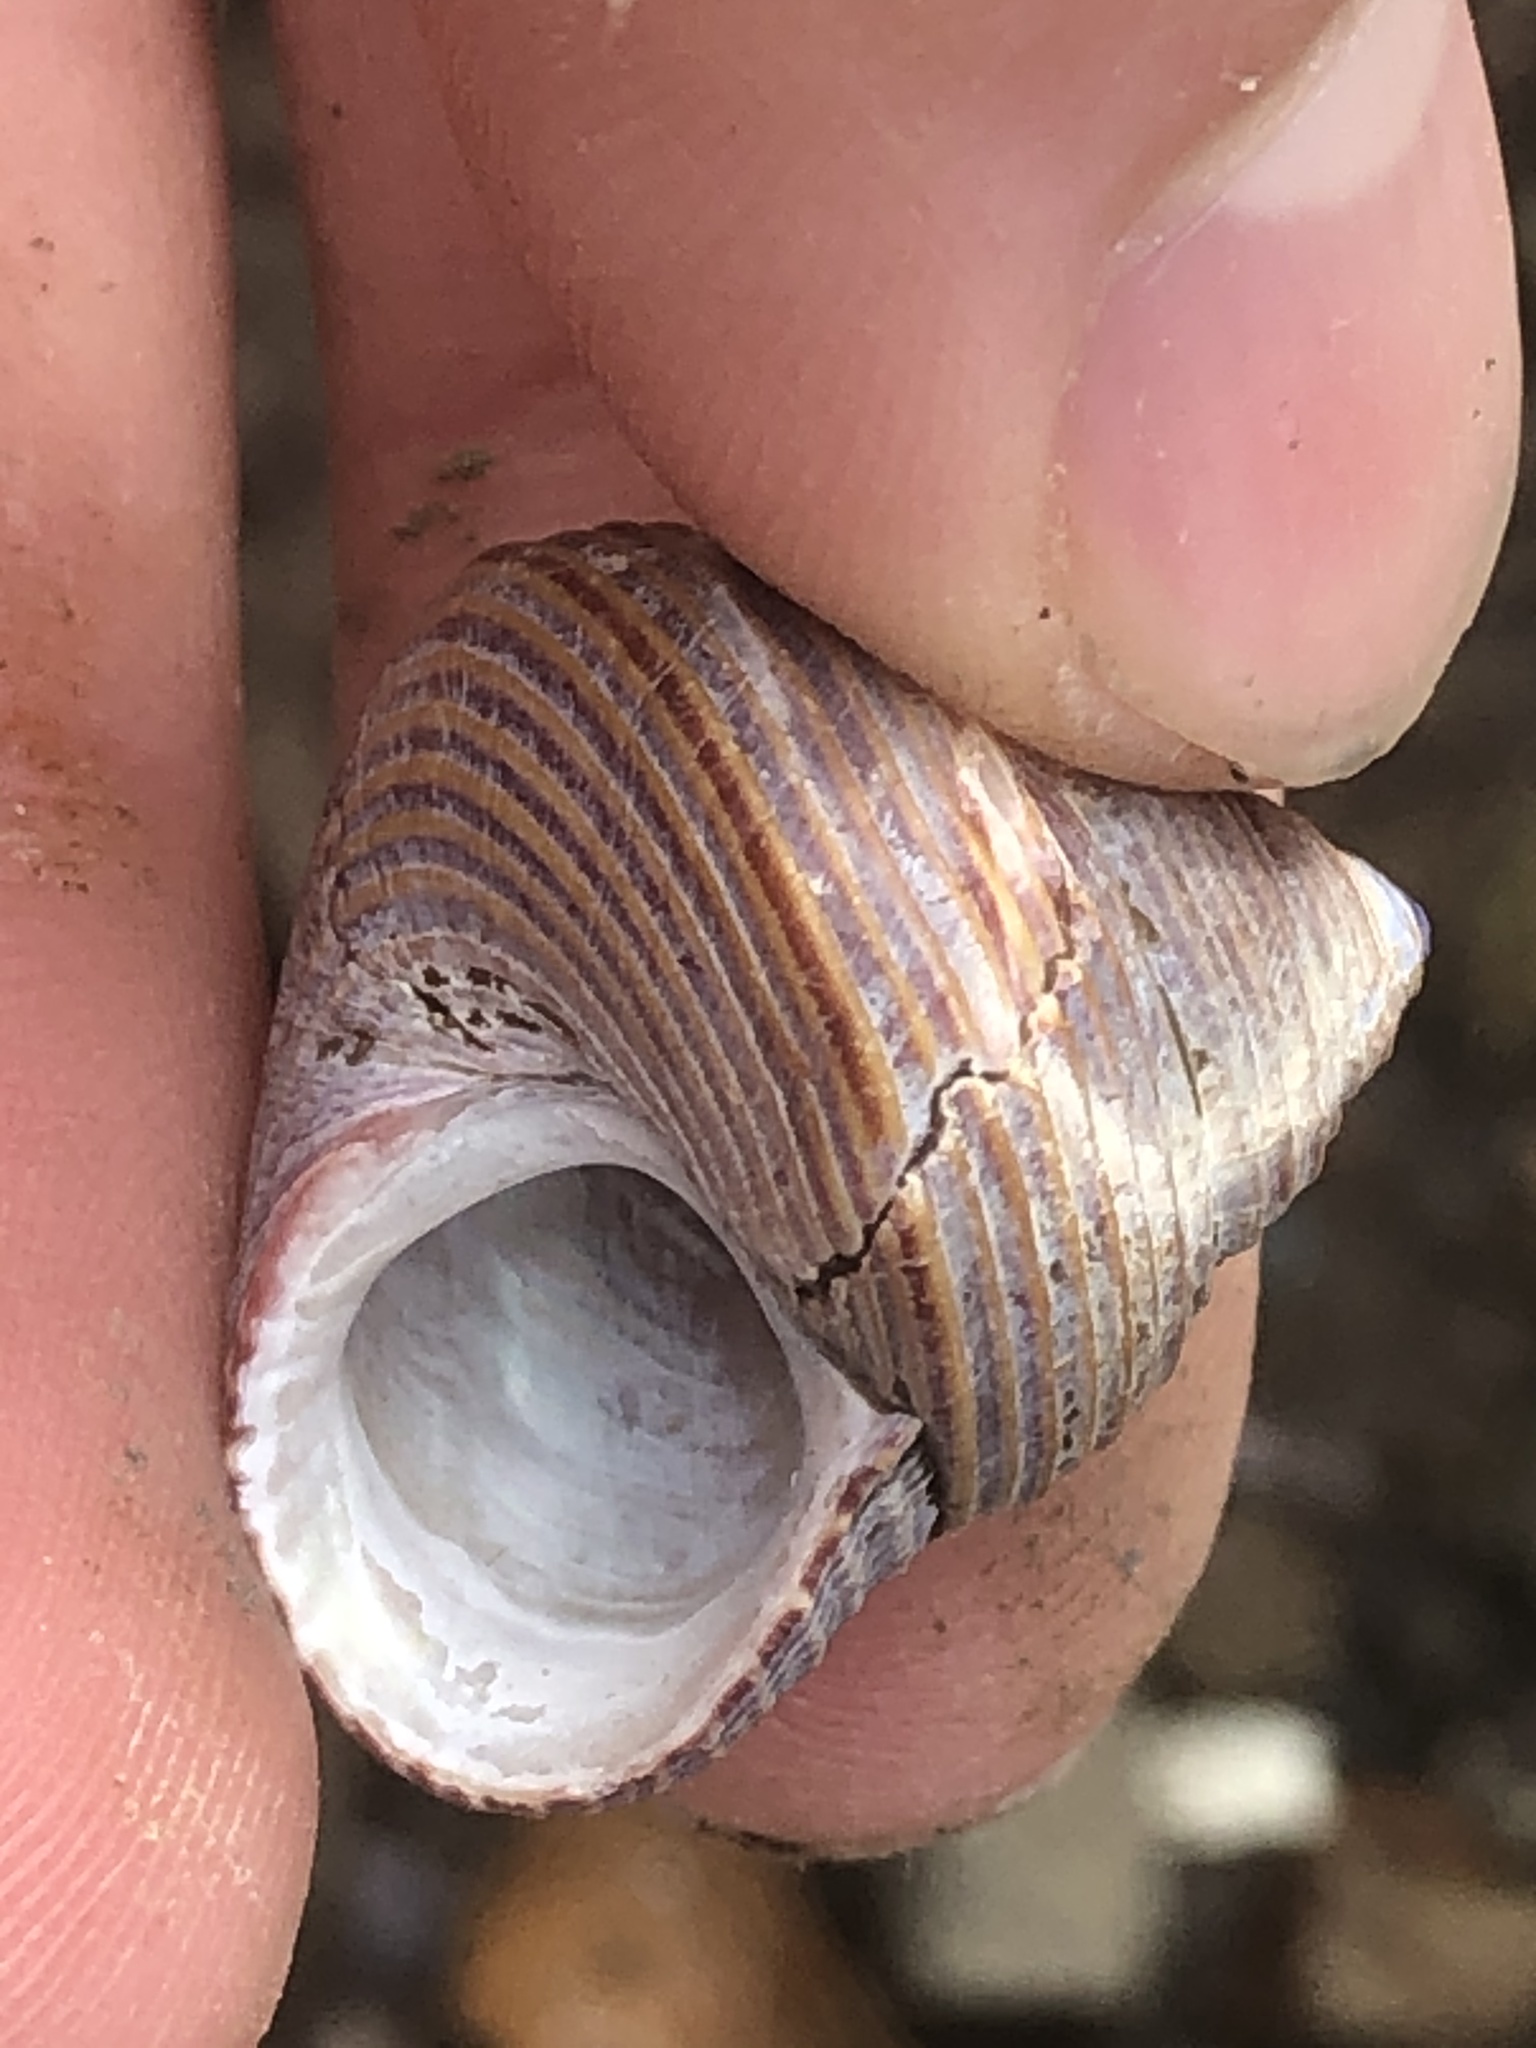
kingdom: Animalia
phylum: Mollusca
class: Gastropoda
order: Trochida
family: Calliostomatidae
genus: Calliostoma
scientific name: Calliostoma ligatum
